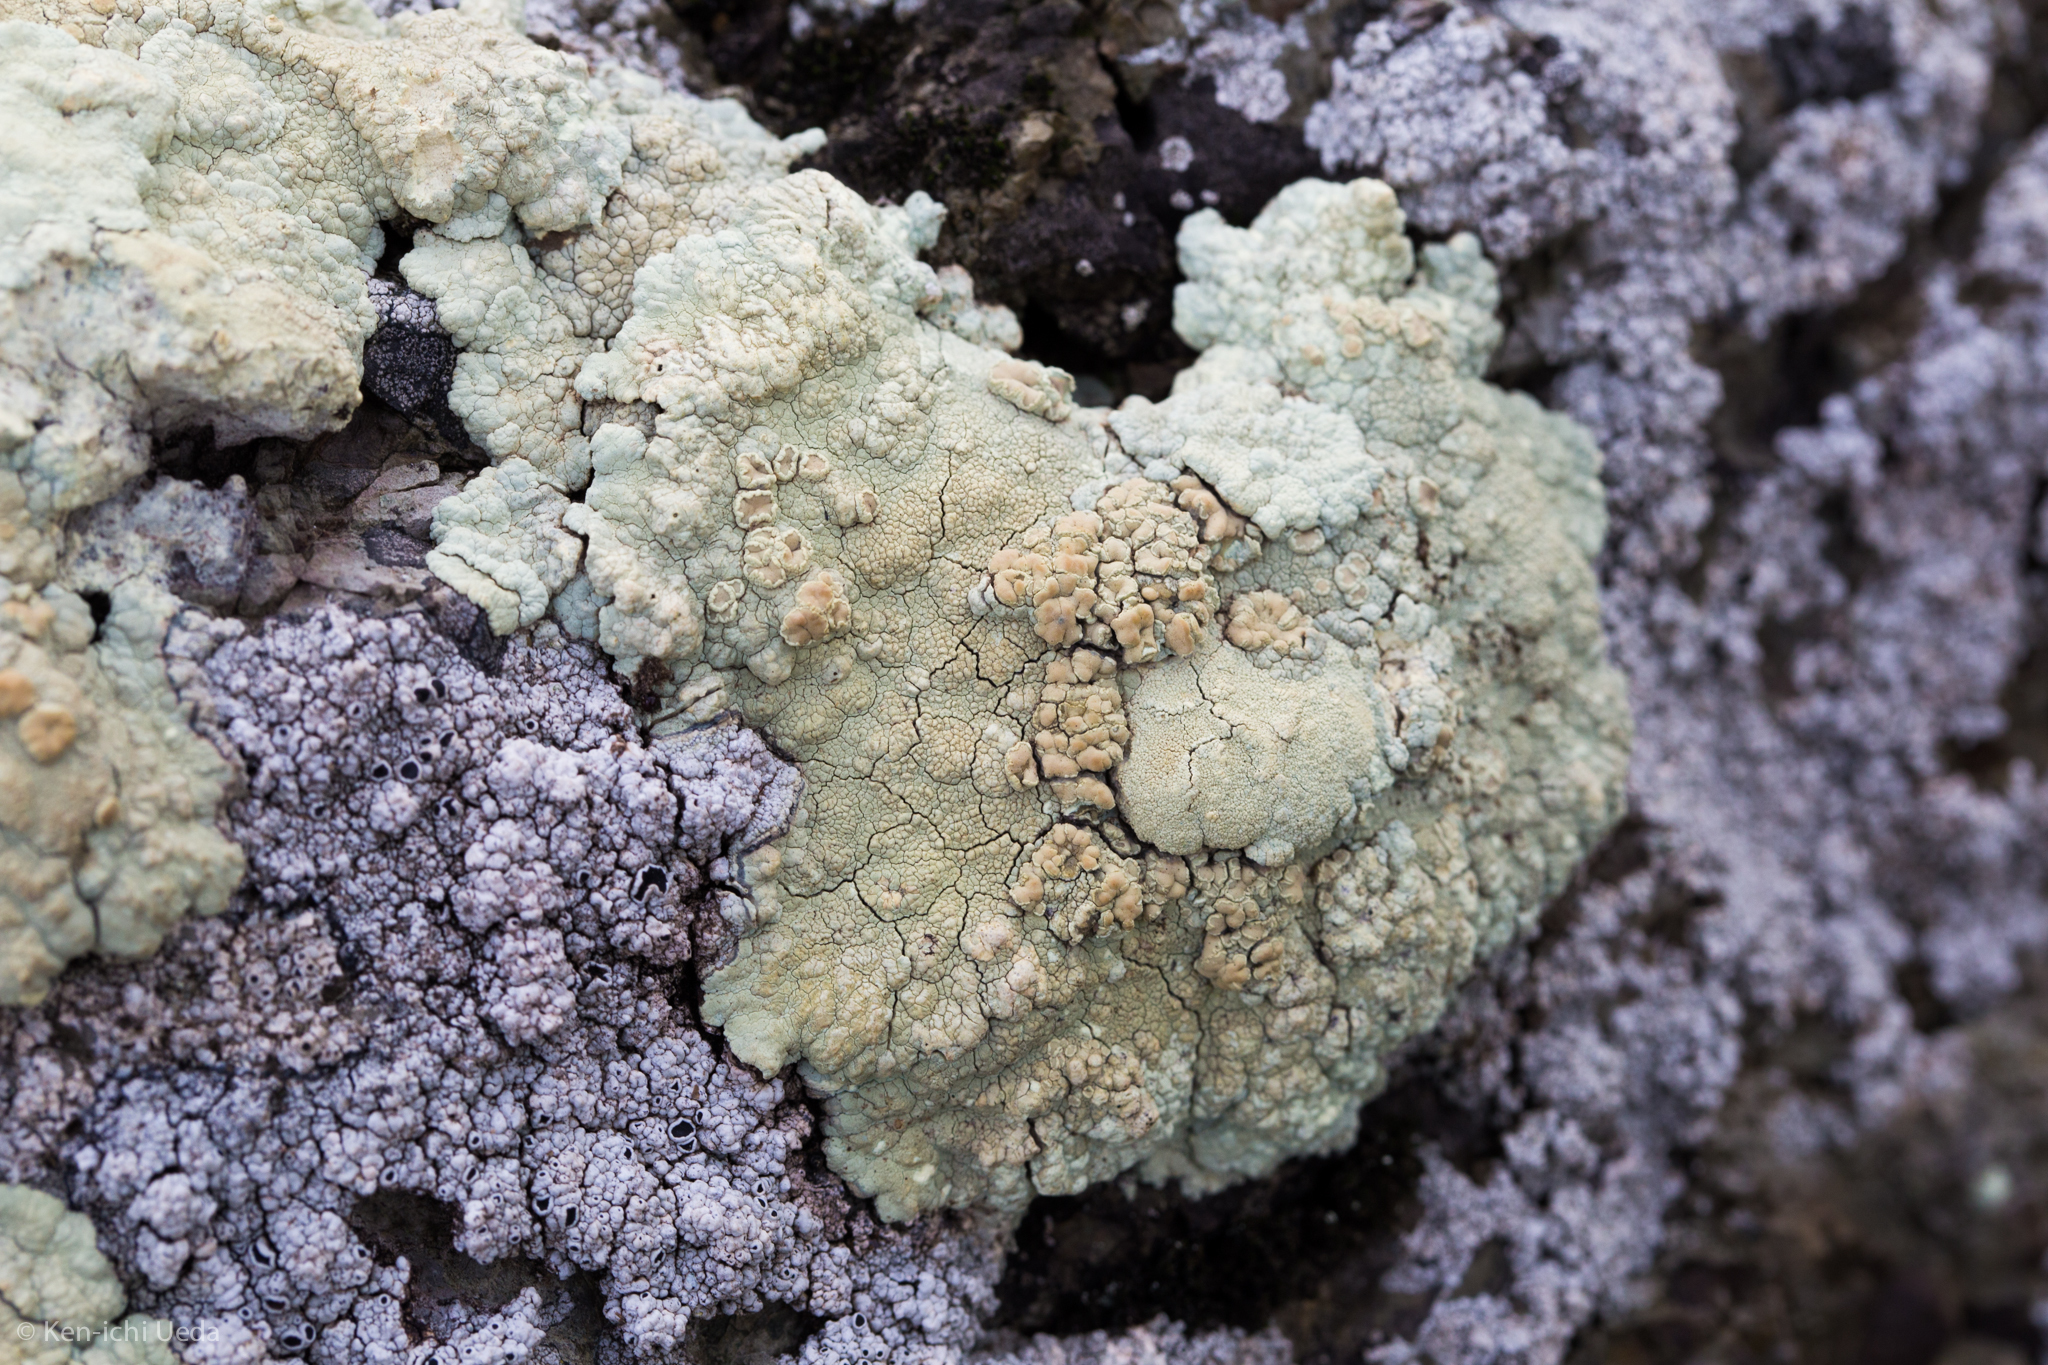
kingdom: Fungi
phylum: Ascomycota
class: Lecanoromycetes
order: Lecanorales
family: Lecanoraceae
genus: Protoparmeliopsis
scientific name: Protoparmeliopsis pinguis
